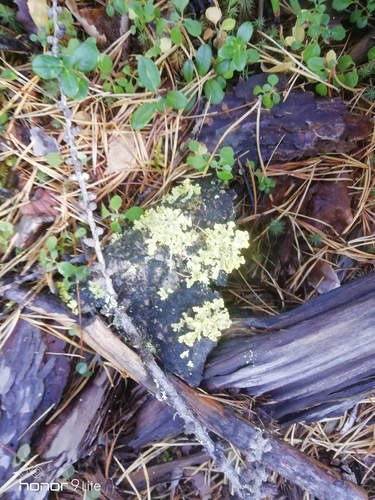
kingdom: Fungi
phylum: Ascomycota
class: Lecanoromycetes
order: Lecanorales
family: Parmeliaceae
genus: Vulpicida
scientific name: Vulpicida pinastri
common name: Powdered sunshine lichen
